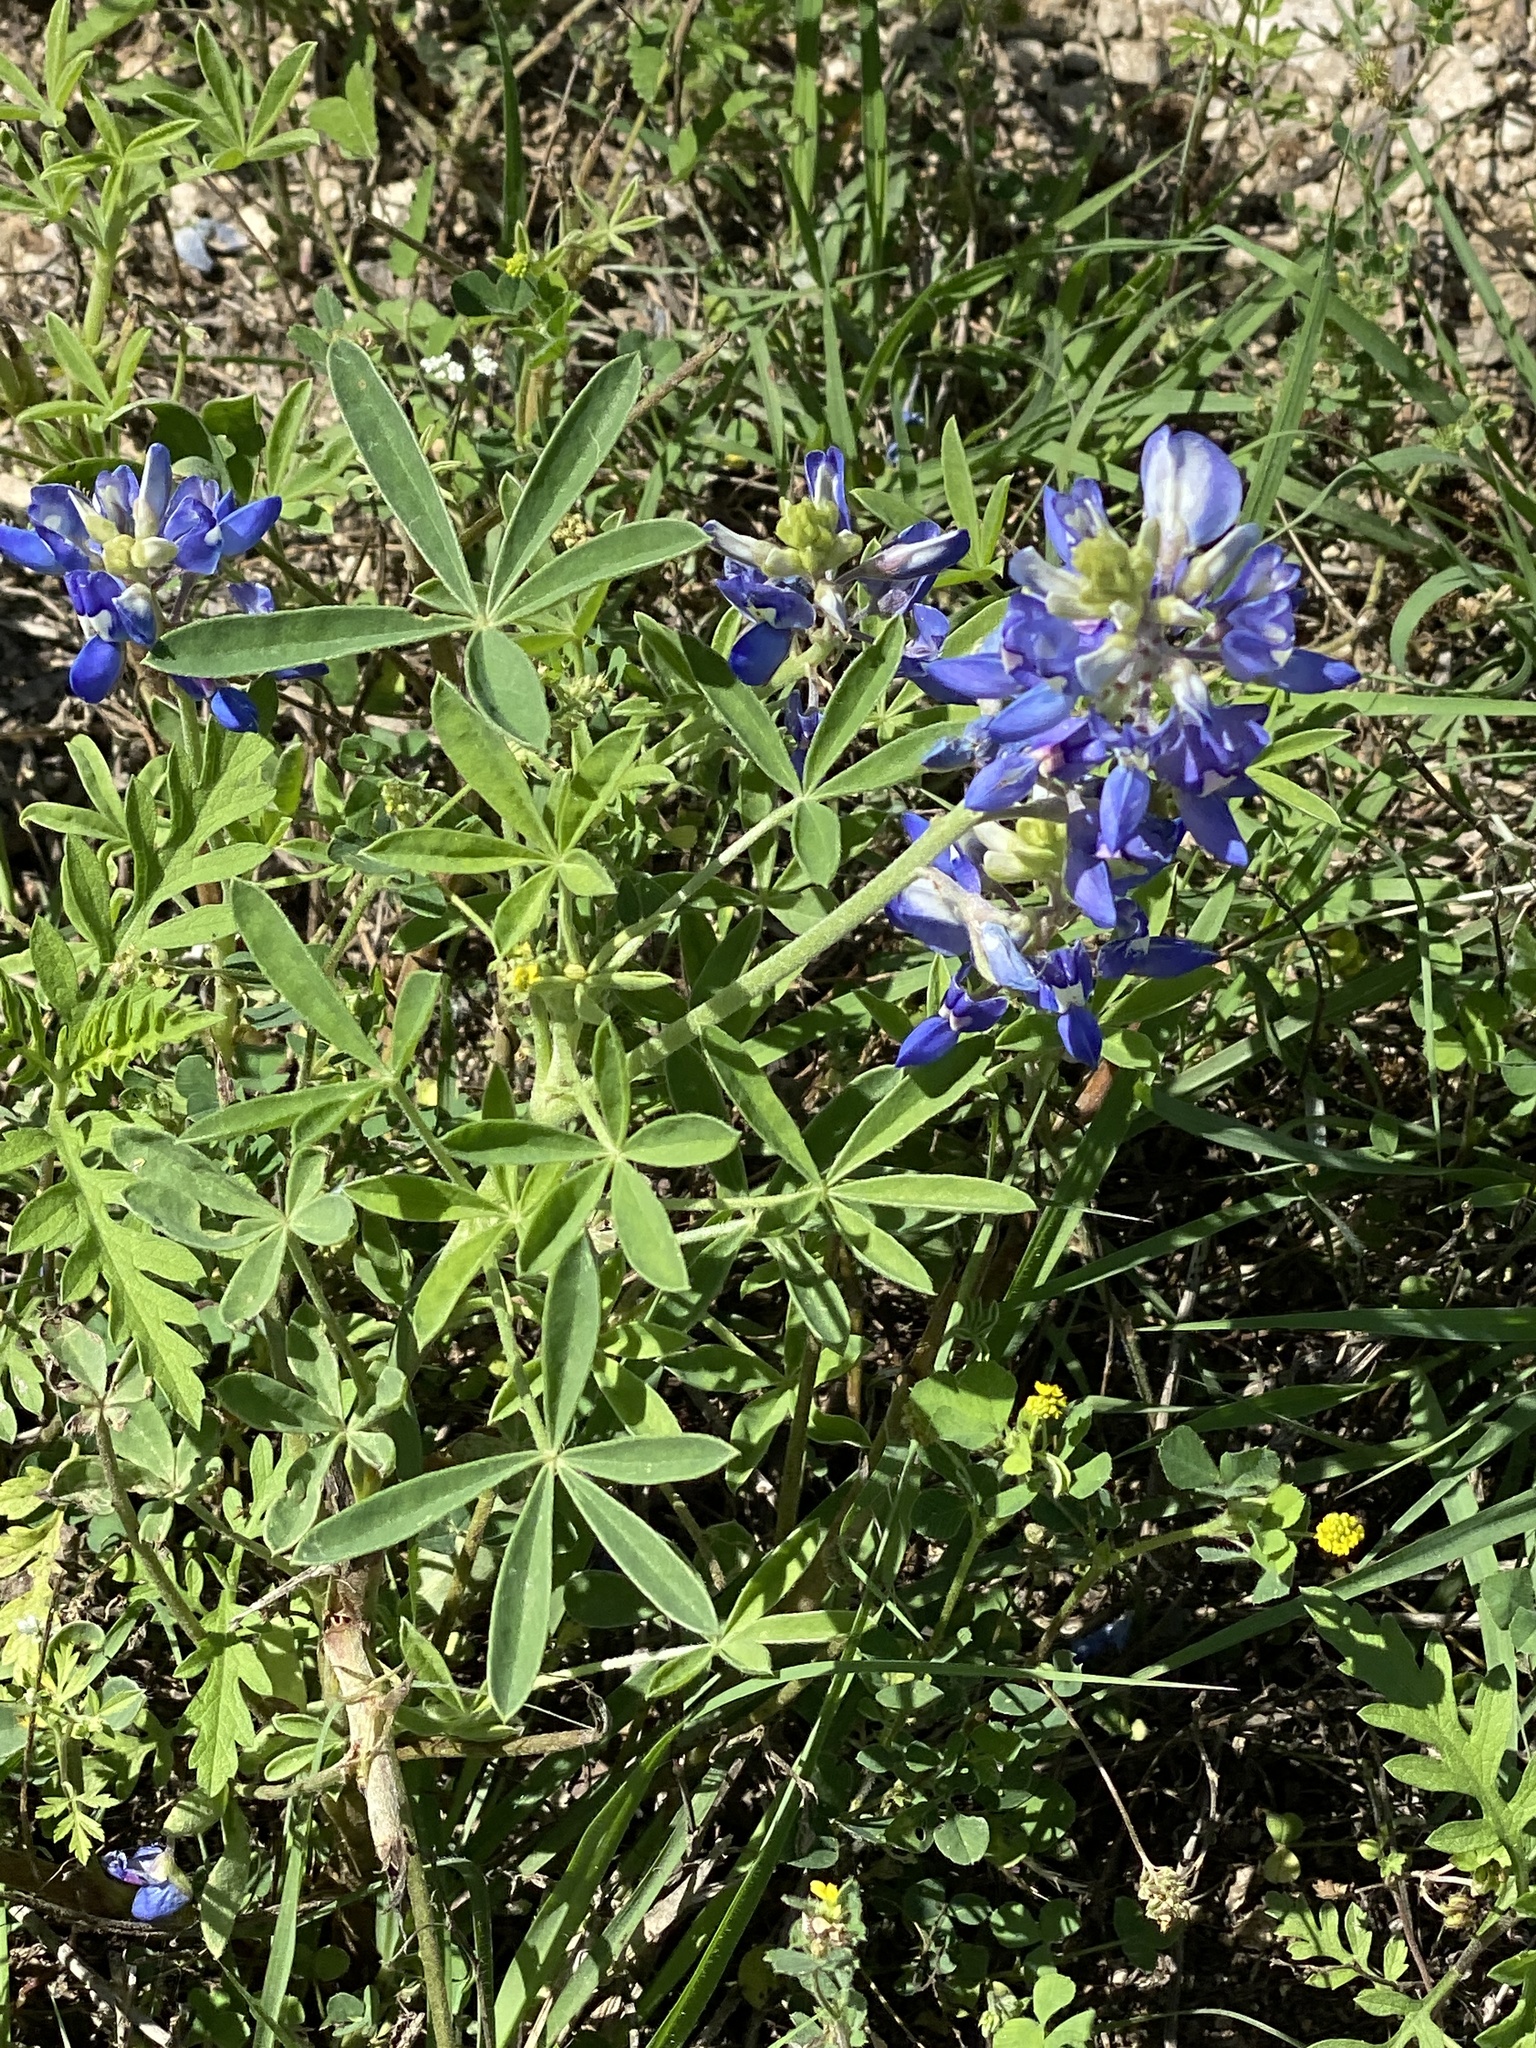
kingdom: Plantae
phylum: Tracheophyta
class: Magnoliopsida
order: Fabales
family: Fabaceae
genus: Lupinus
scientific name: Lupinus texensis
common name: Texas bluebonnet
